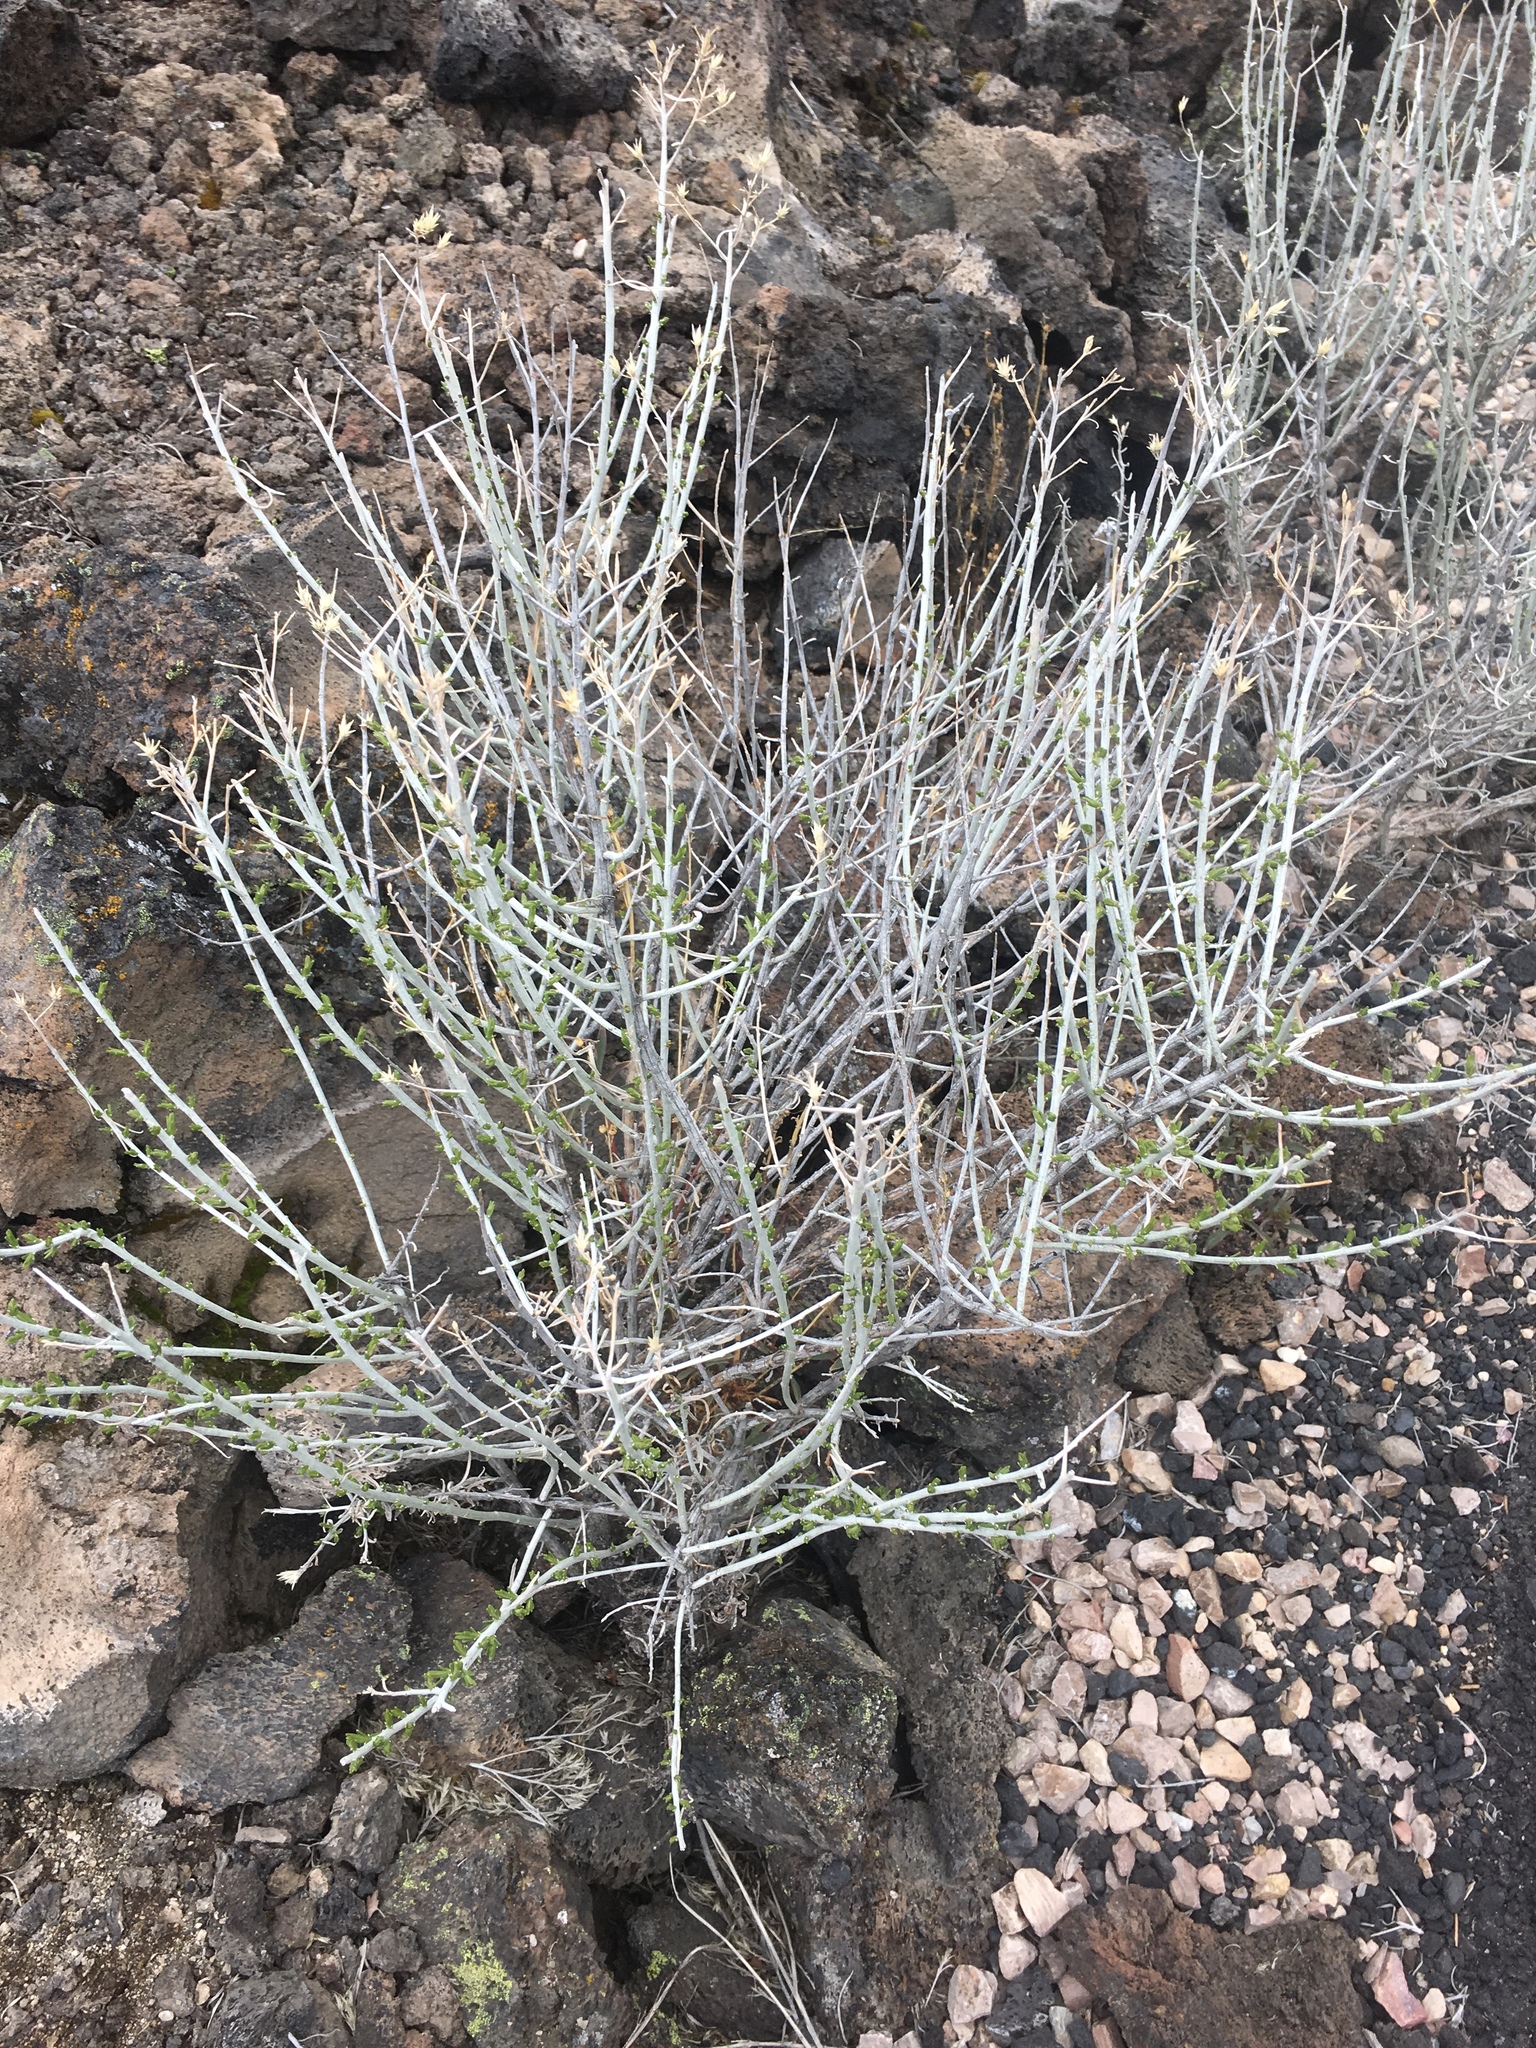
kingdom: Plantae
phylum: Tracheophyta
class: Magnoliopsida
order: Asterales
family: Asteraceae
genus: Ericameria
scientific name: Ericameria nauseosa
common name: Rubber rabbitbrush
